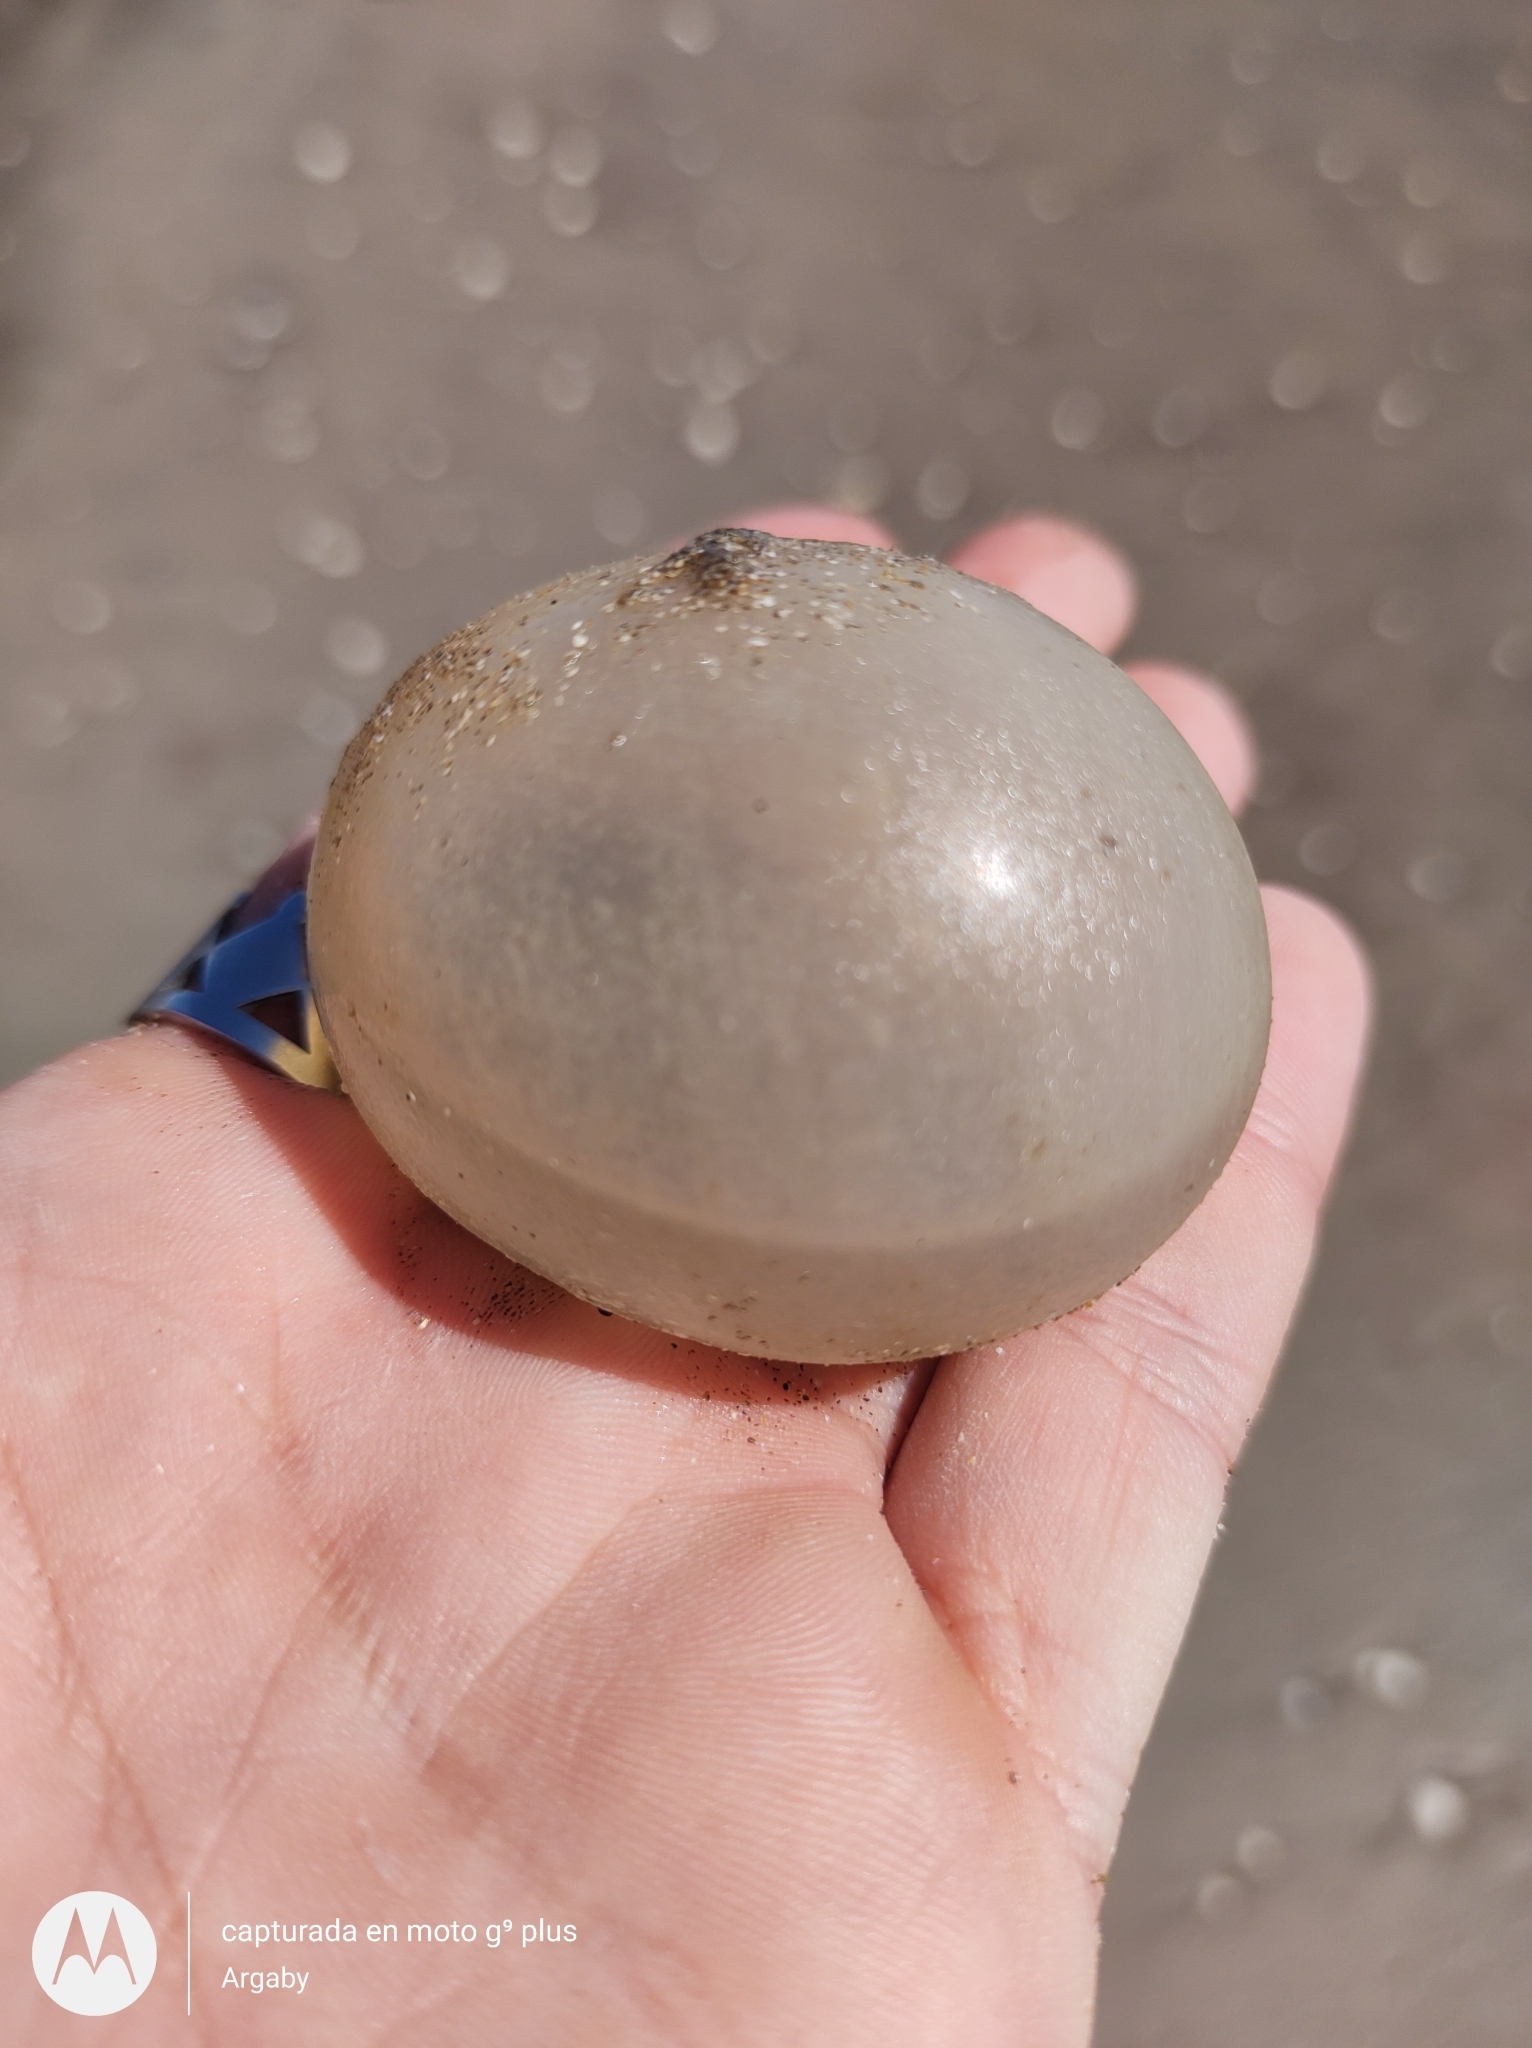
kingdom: Animalia
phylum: Mollusca
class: Gastropoda
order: Neogastropoda
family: Volutidae
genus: Pachycymbiola
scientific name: Pachycymbiola brasiliana
